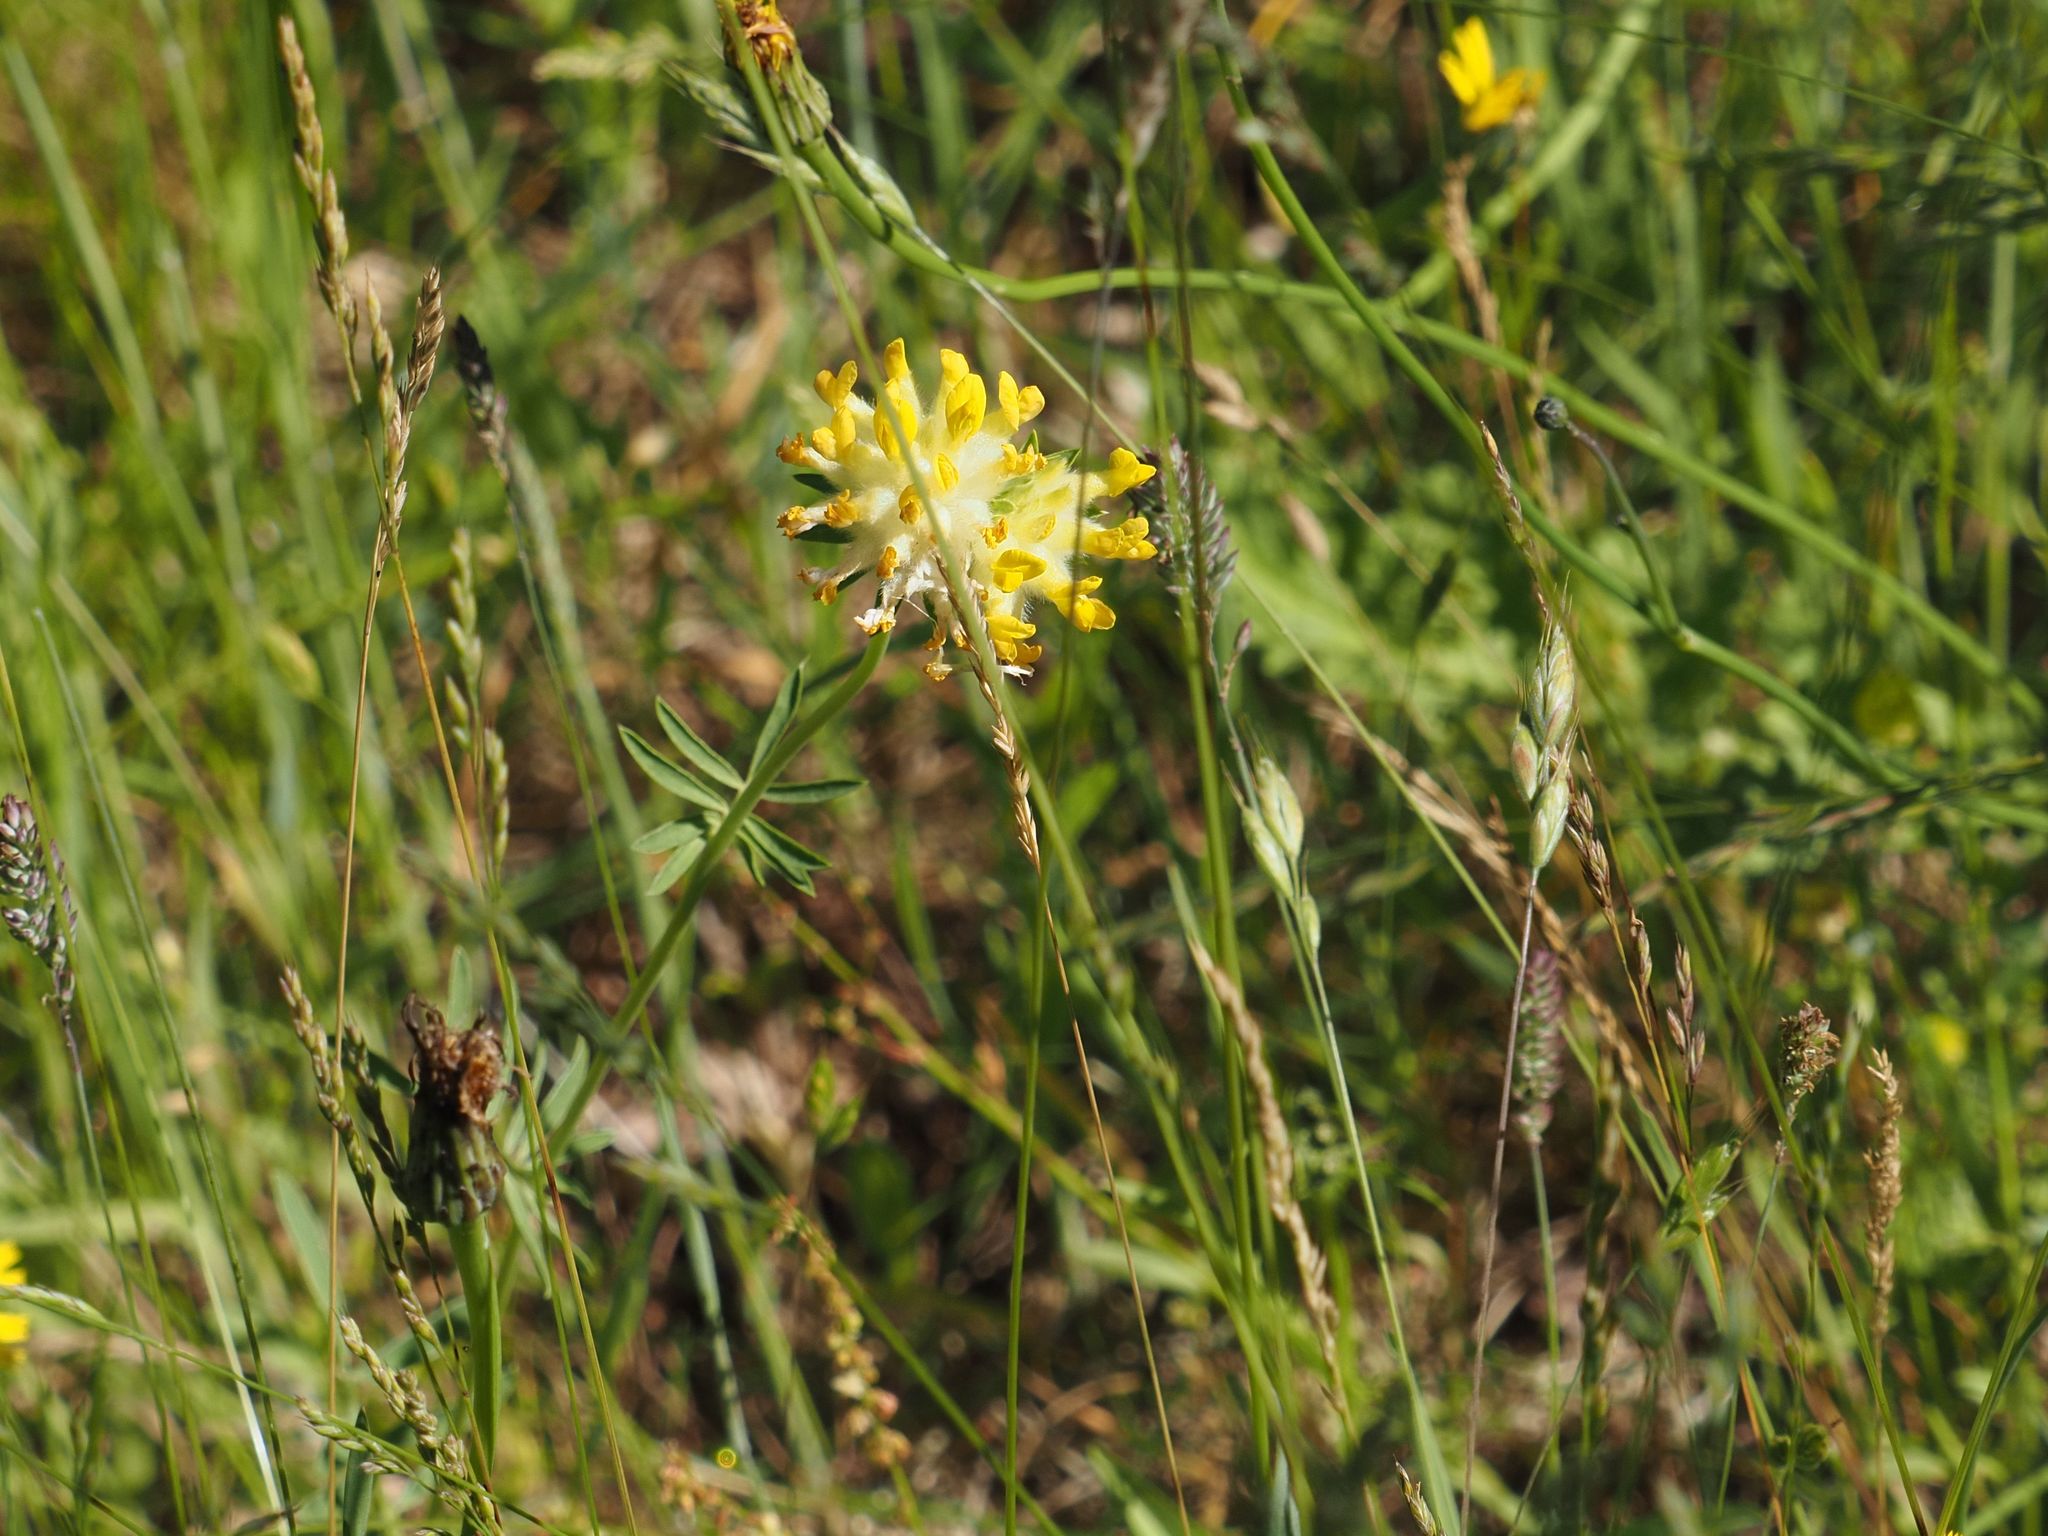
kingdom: Plantae
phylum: Tracheophyta
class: Magnoliopsida
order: Fabales
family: Fabaceae
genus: Anthyllis
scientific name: Anthyllis vulneraria
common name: Kidney vetch
